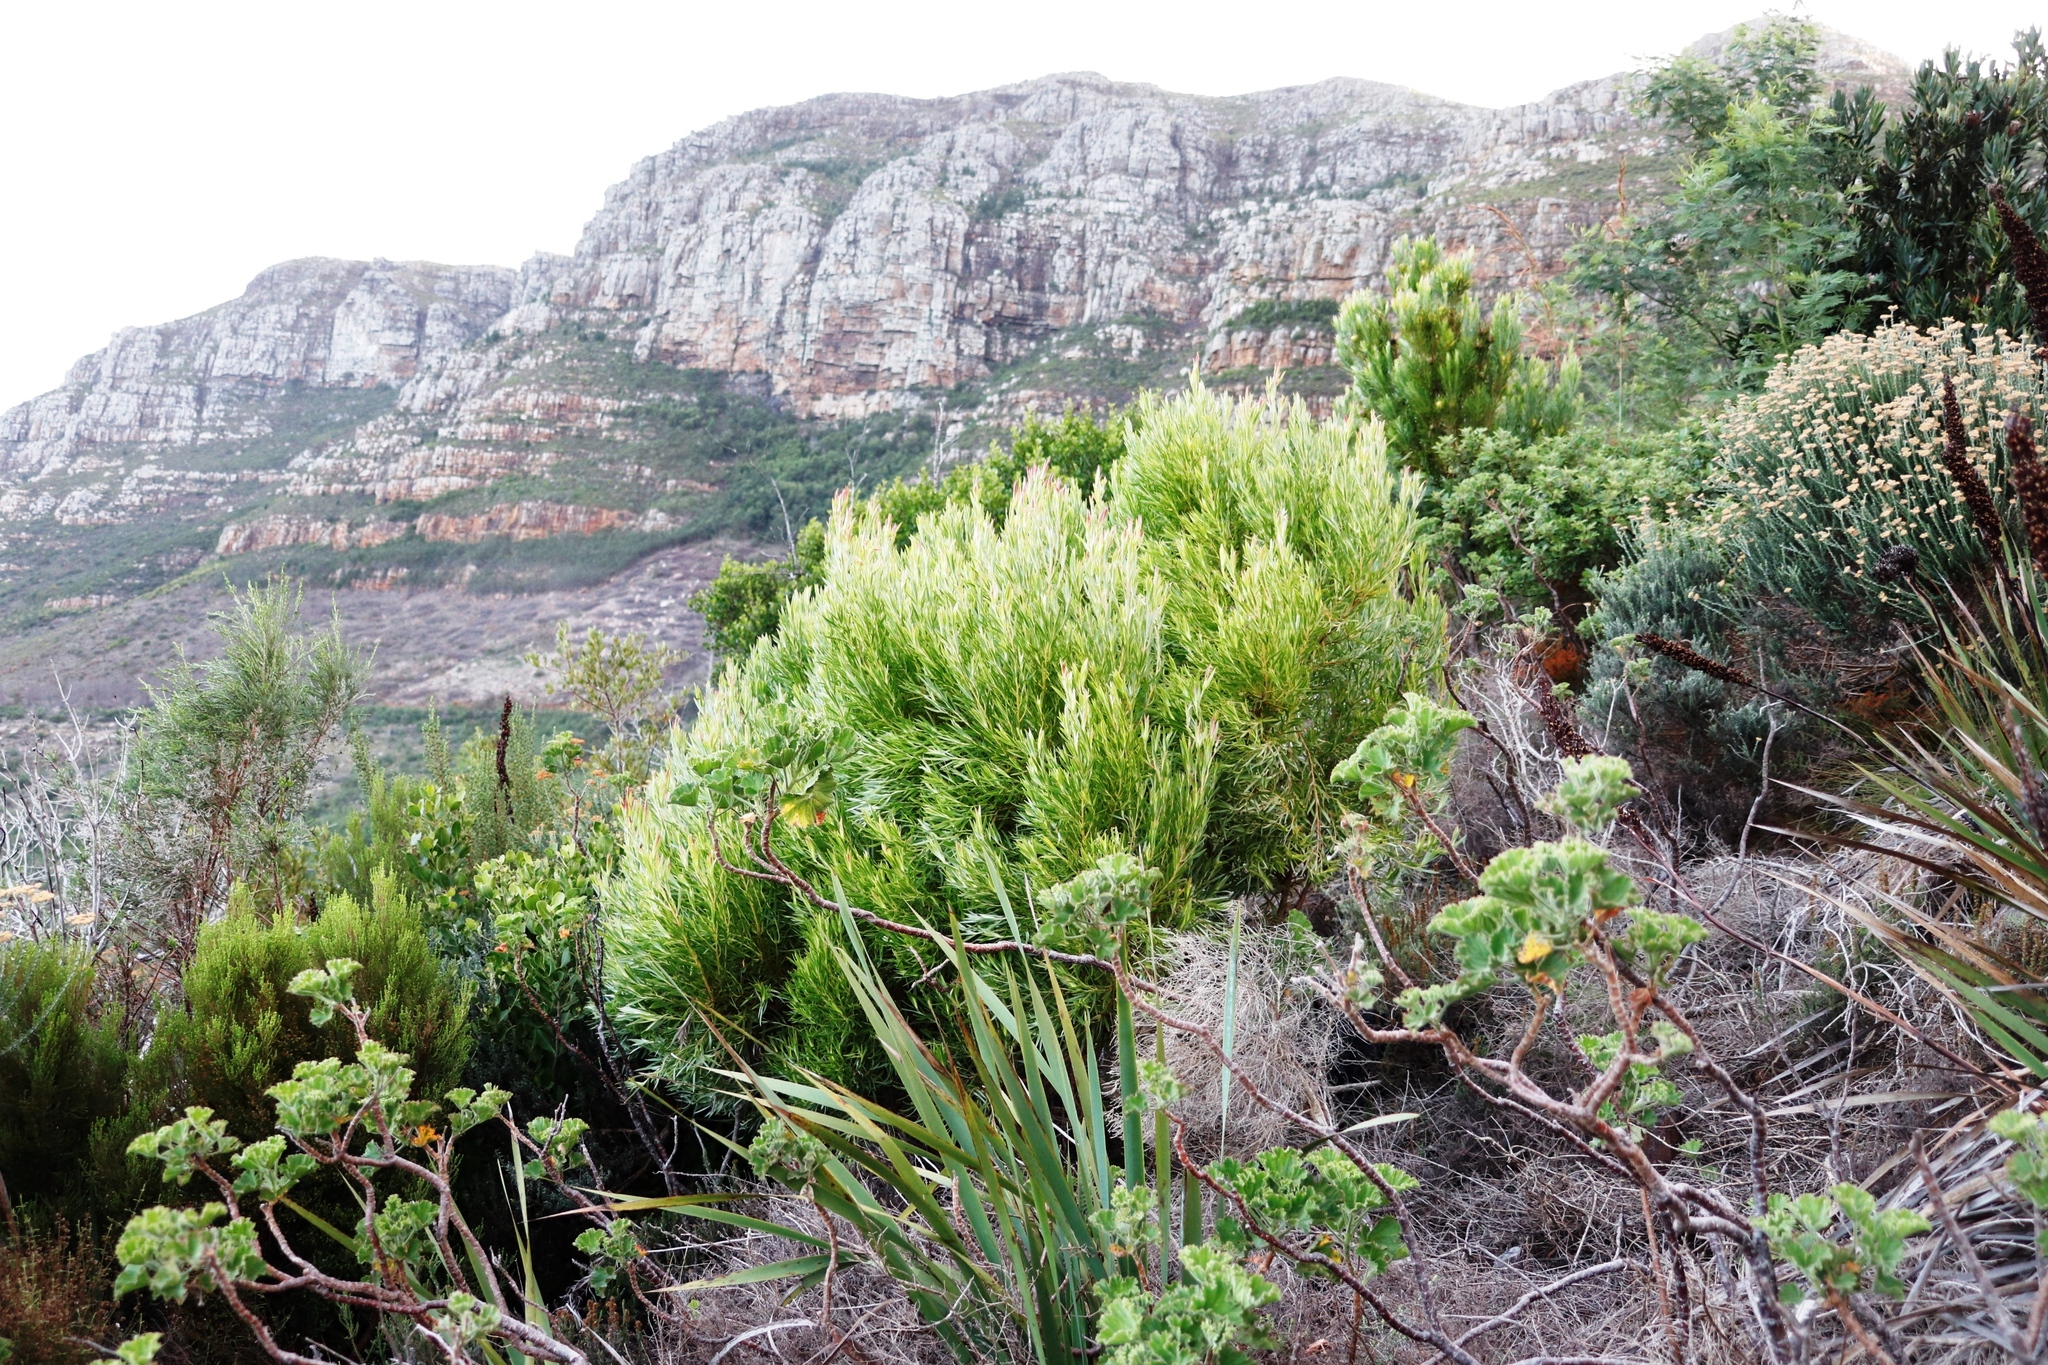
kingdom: Plantae
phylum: Tracheophyta
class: Magnoliopsida
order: Proteales
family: Proteaceae
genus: Leucadendron
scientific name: Leucadendron xanthoconus
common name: Sickle-leaf conebush
